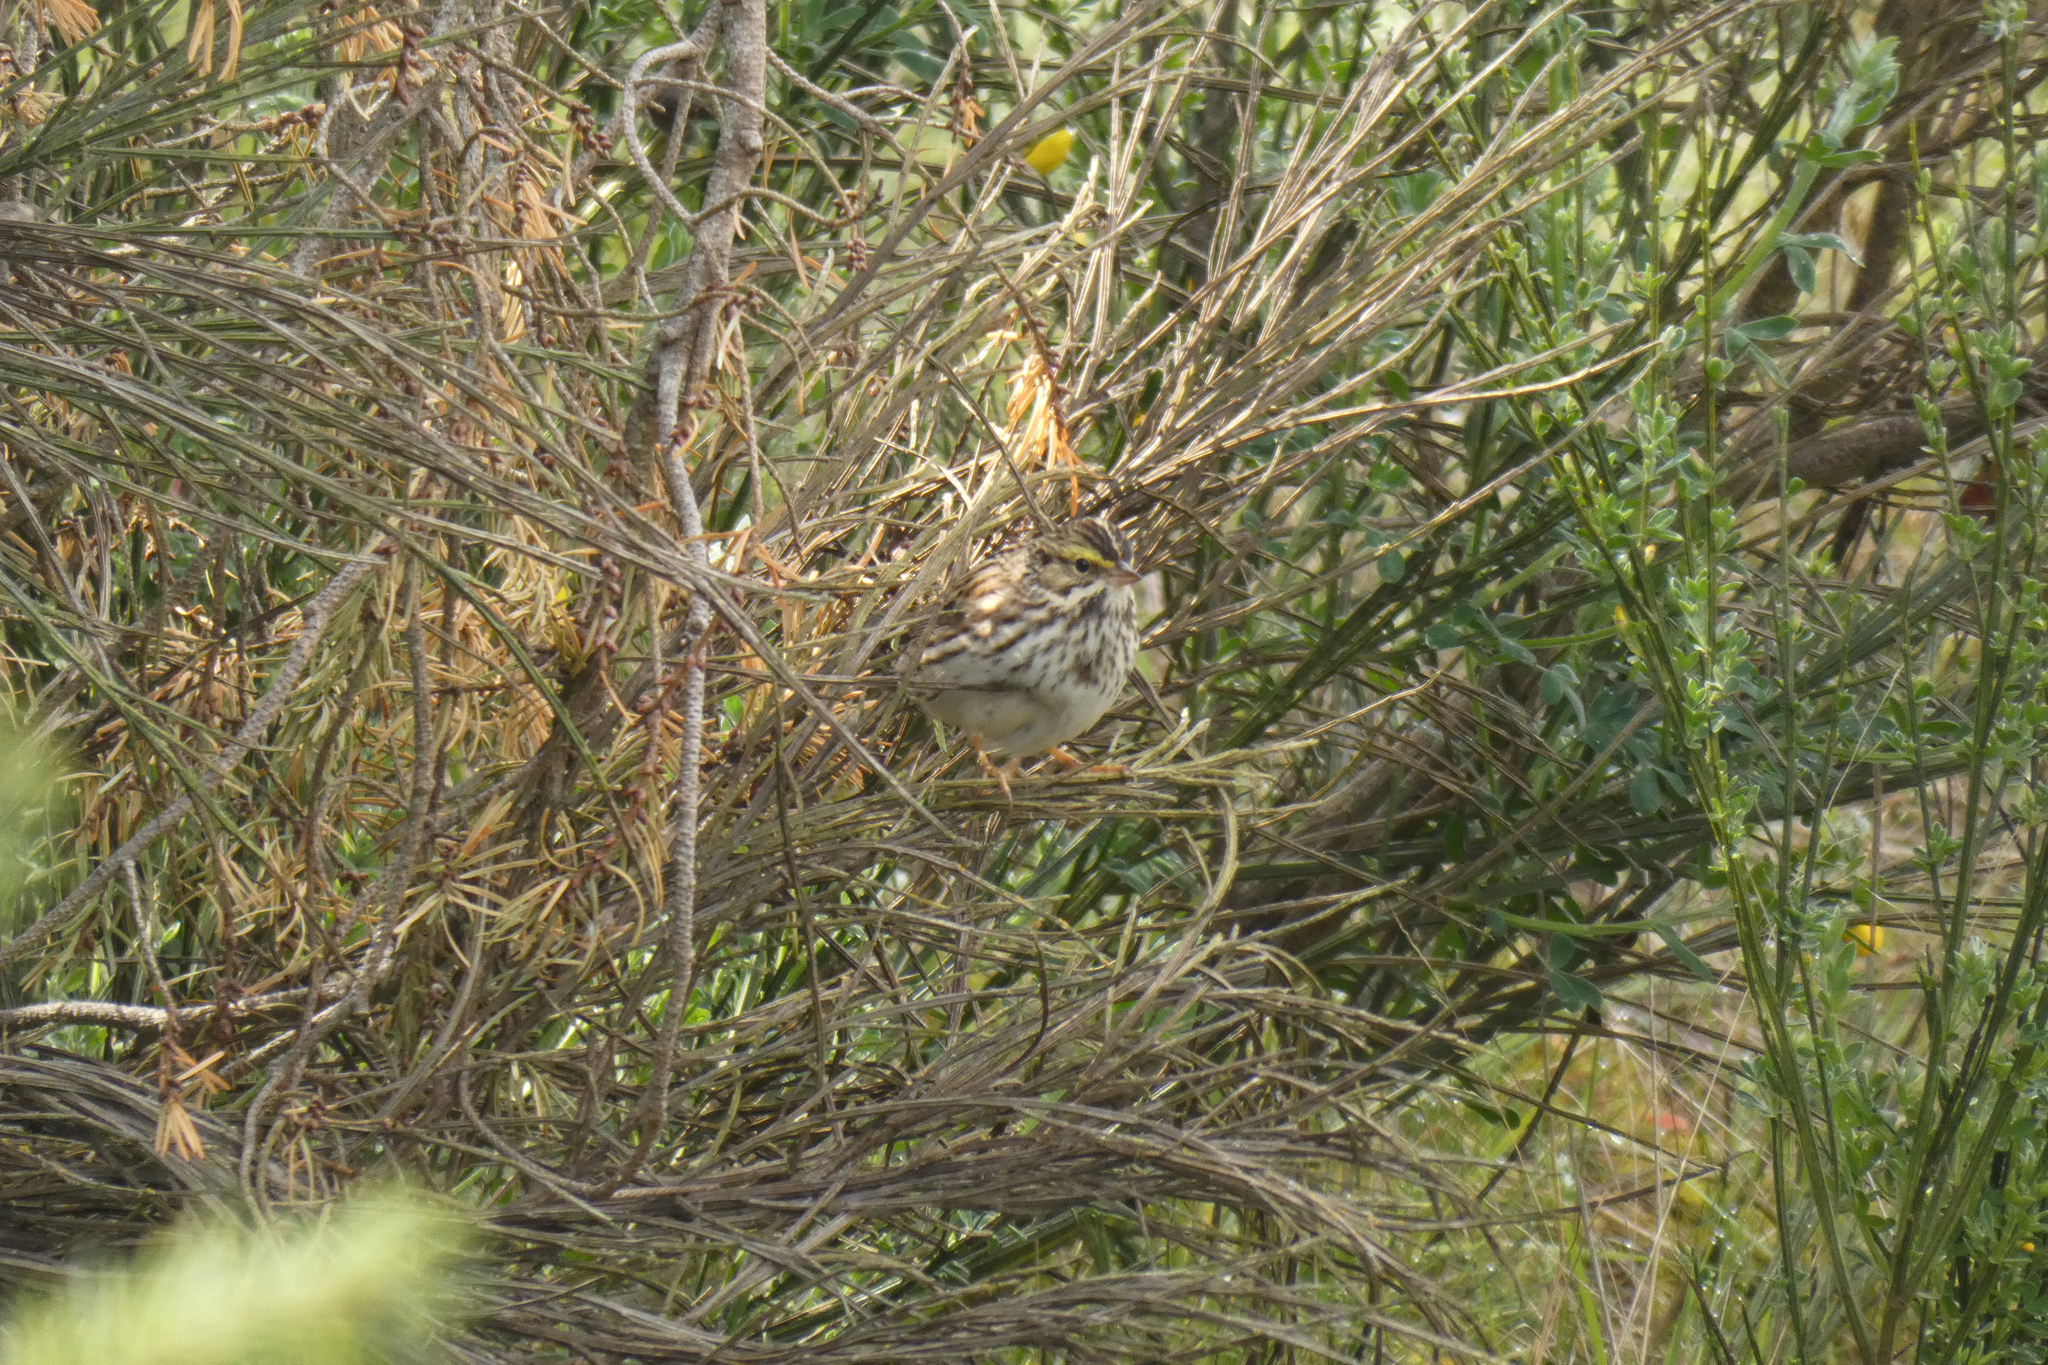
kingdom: Animalia
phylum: Chordata
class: Aves
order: Passeriformes
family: Passerellidae
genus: Passerculus
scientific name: Passerculus sandwichensis
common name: Savannah sparrow
